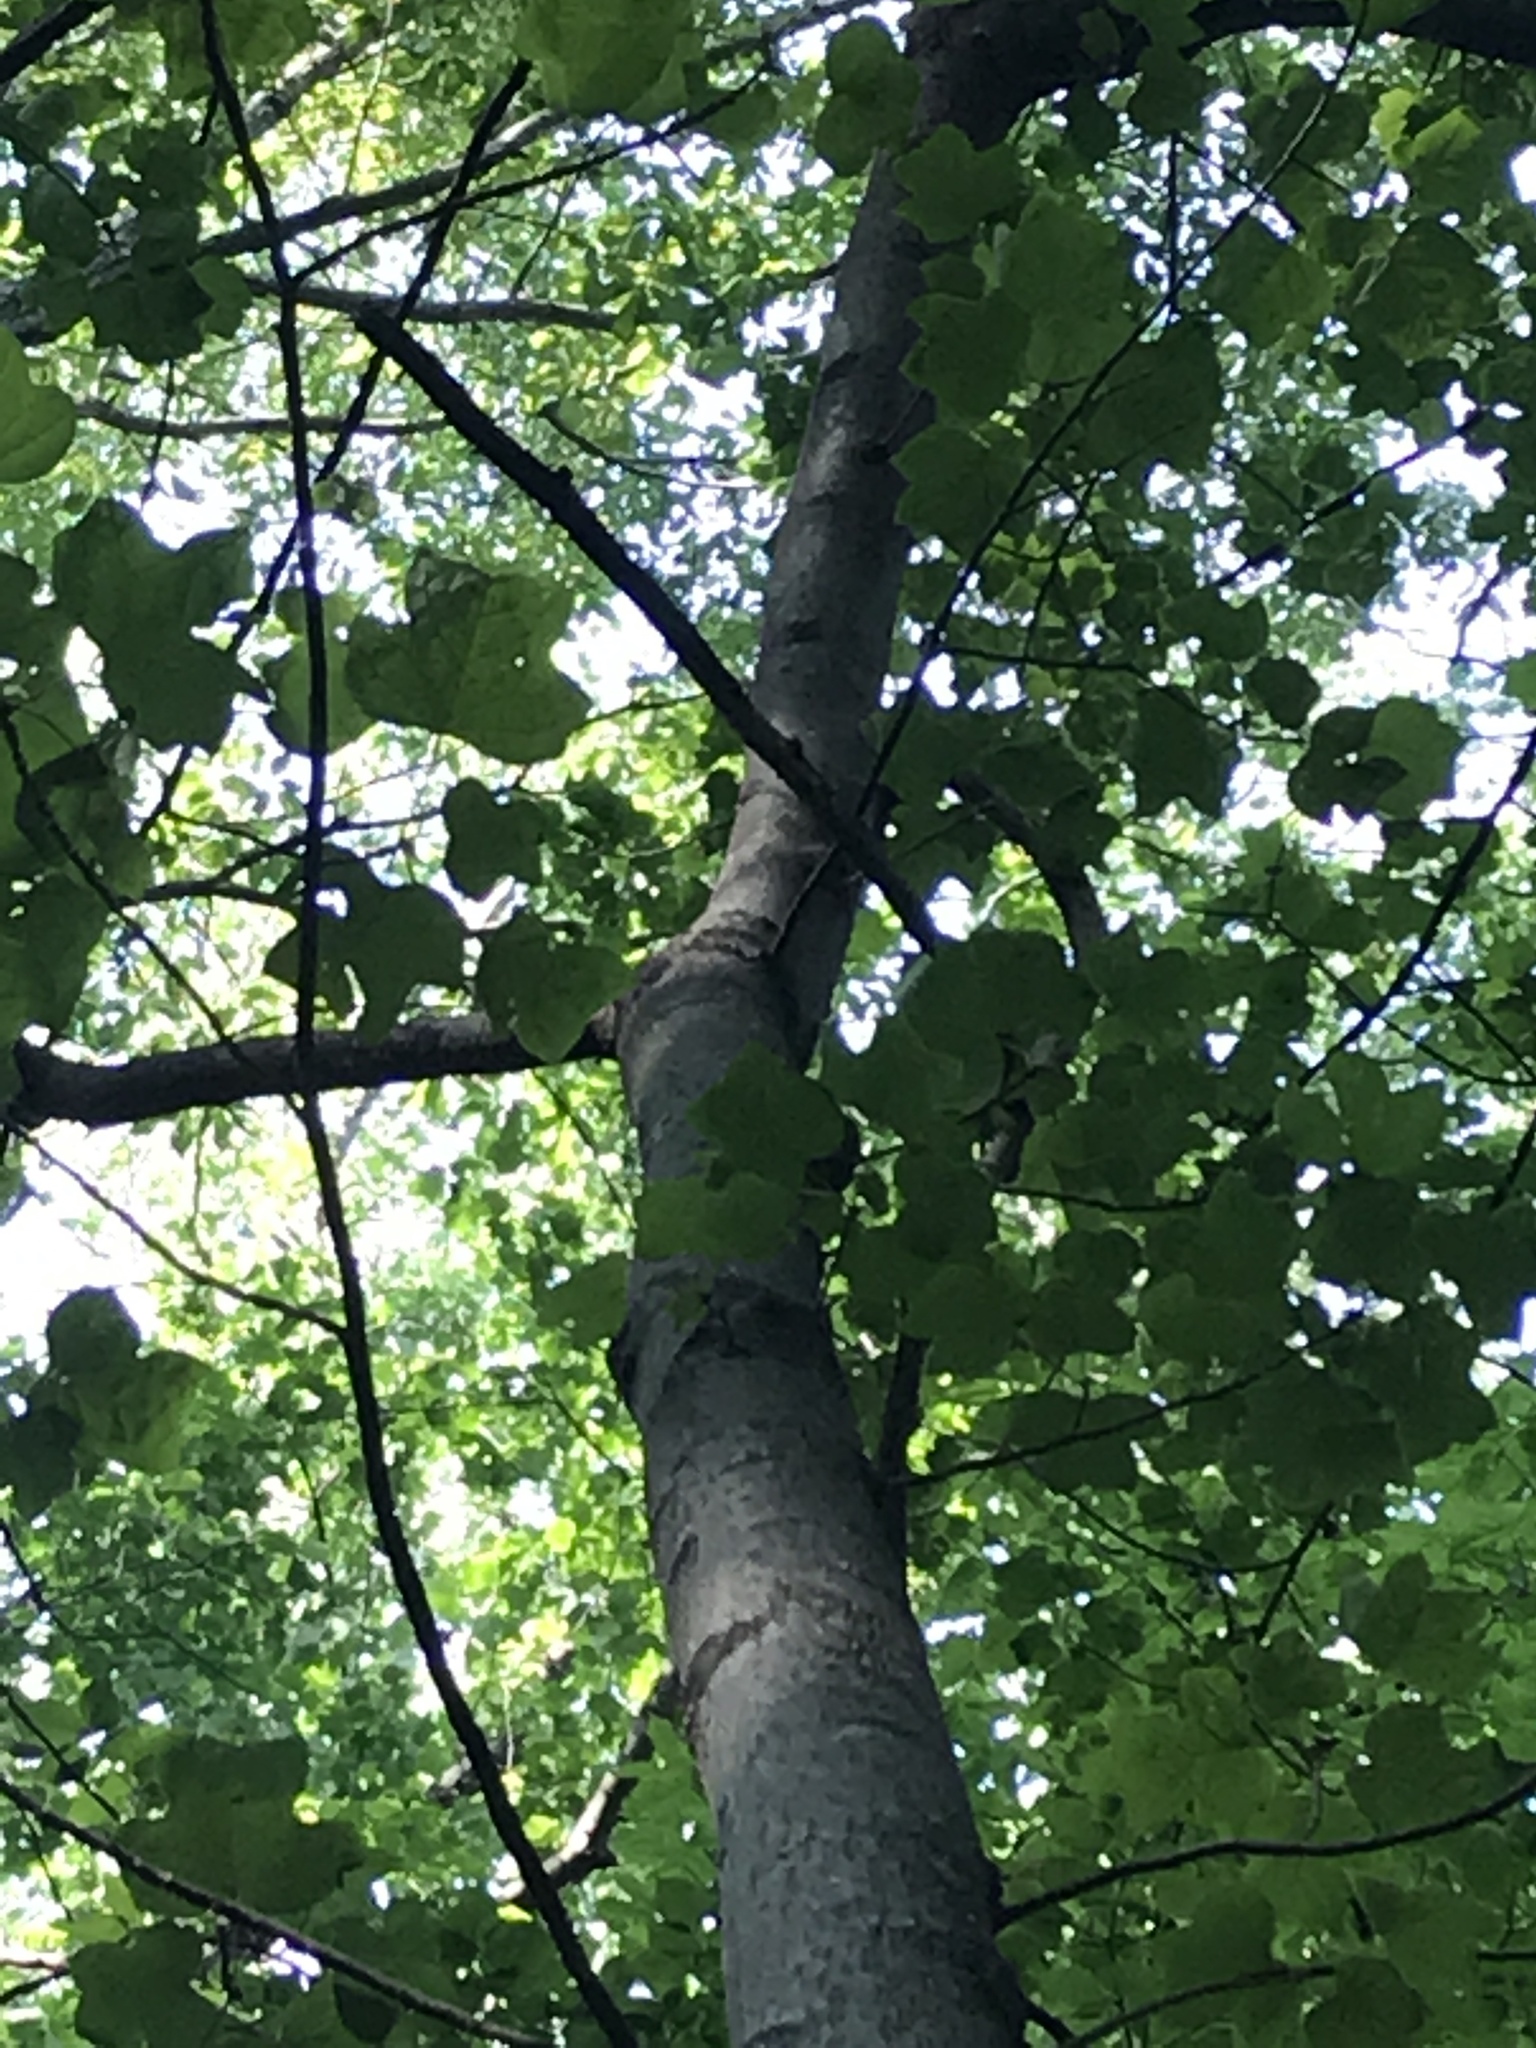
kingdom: Plantae
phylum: Tracheophyta
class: Magnoliopsida
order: Magnoliales
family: Magnoliaceae
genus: Liriodendron
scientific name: Liriodendron tulipifera
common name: Tulip tree
